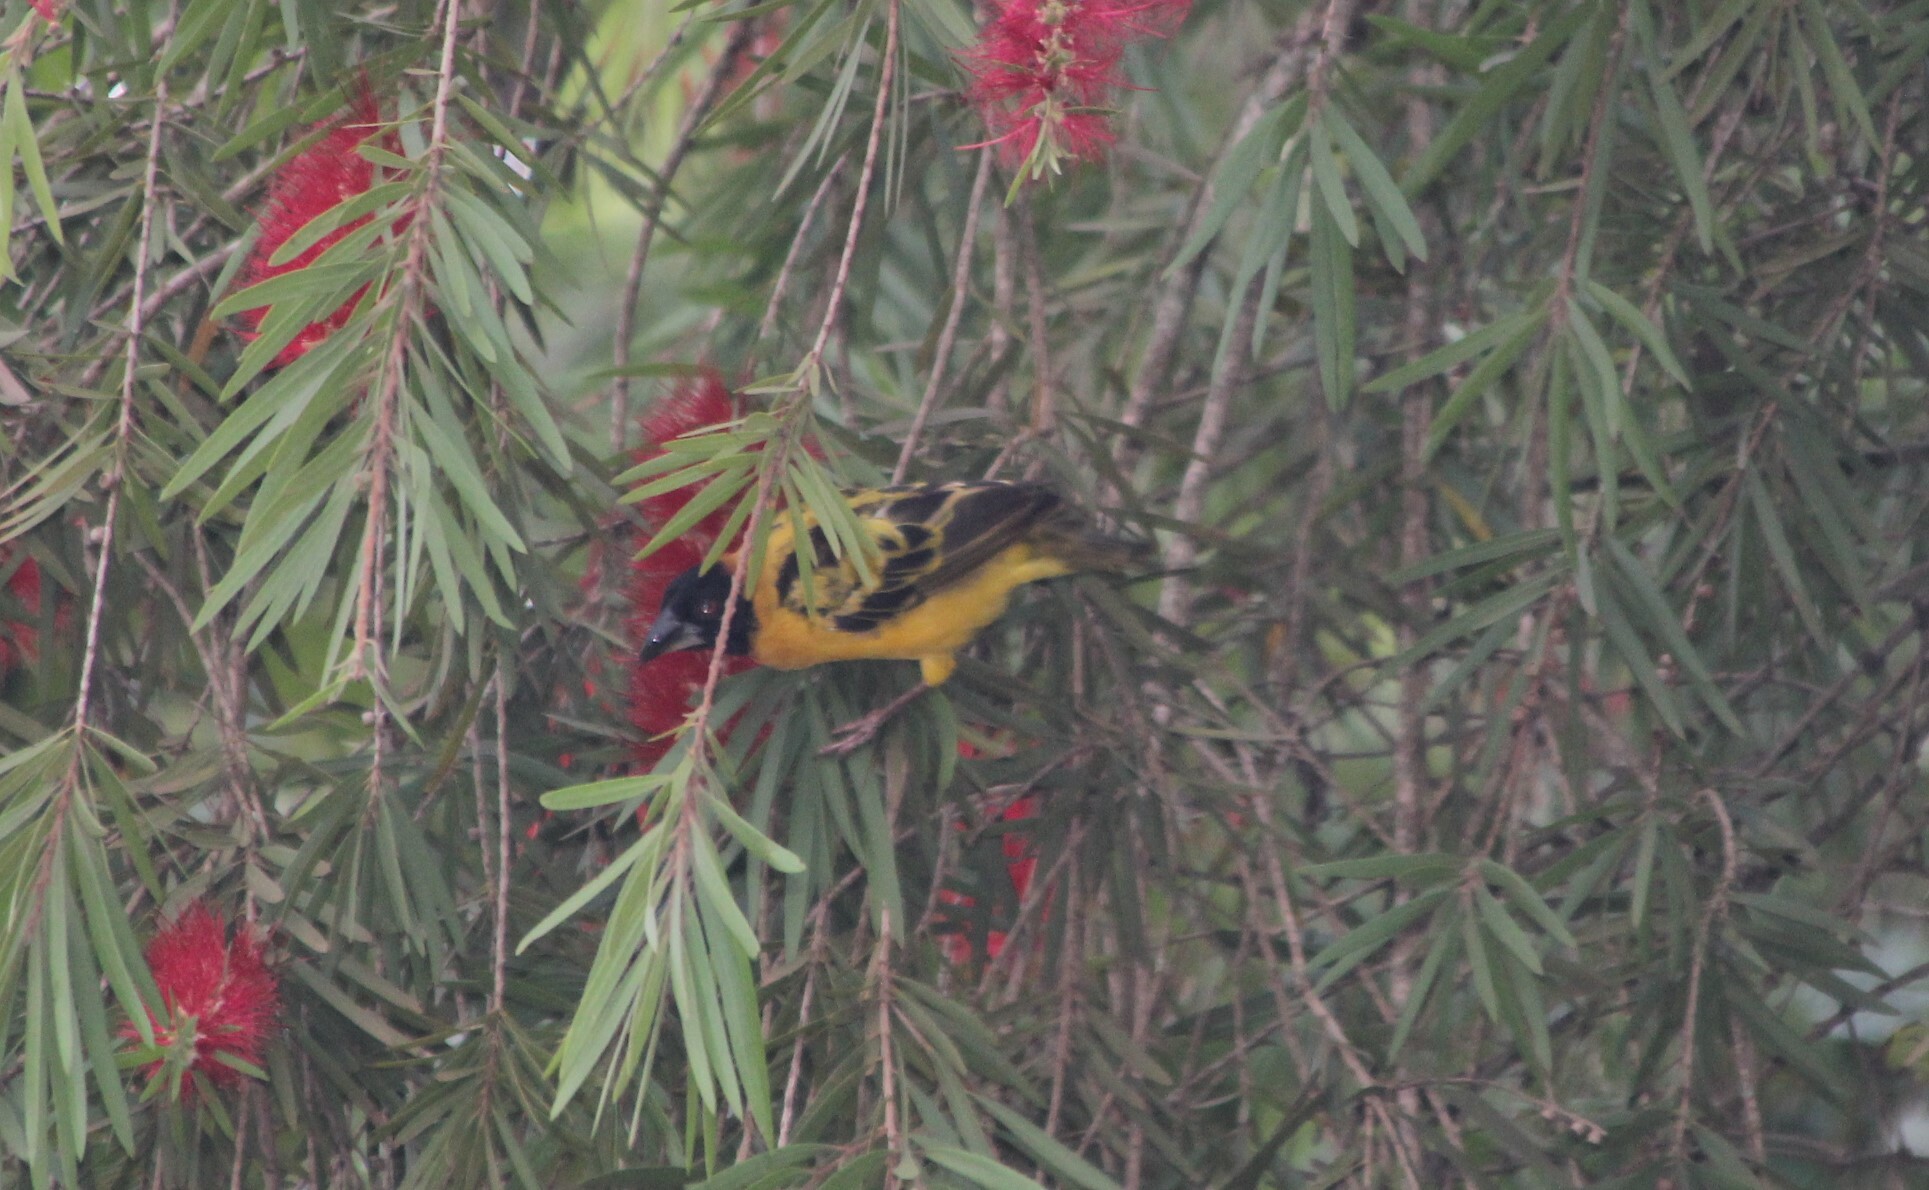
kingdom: Animalia
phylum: Chordata
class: Aves
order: Passeriformes
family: Ploceidae
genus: Ploceus
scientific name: Ploceus cucullatus
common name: Village weaver
